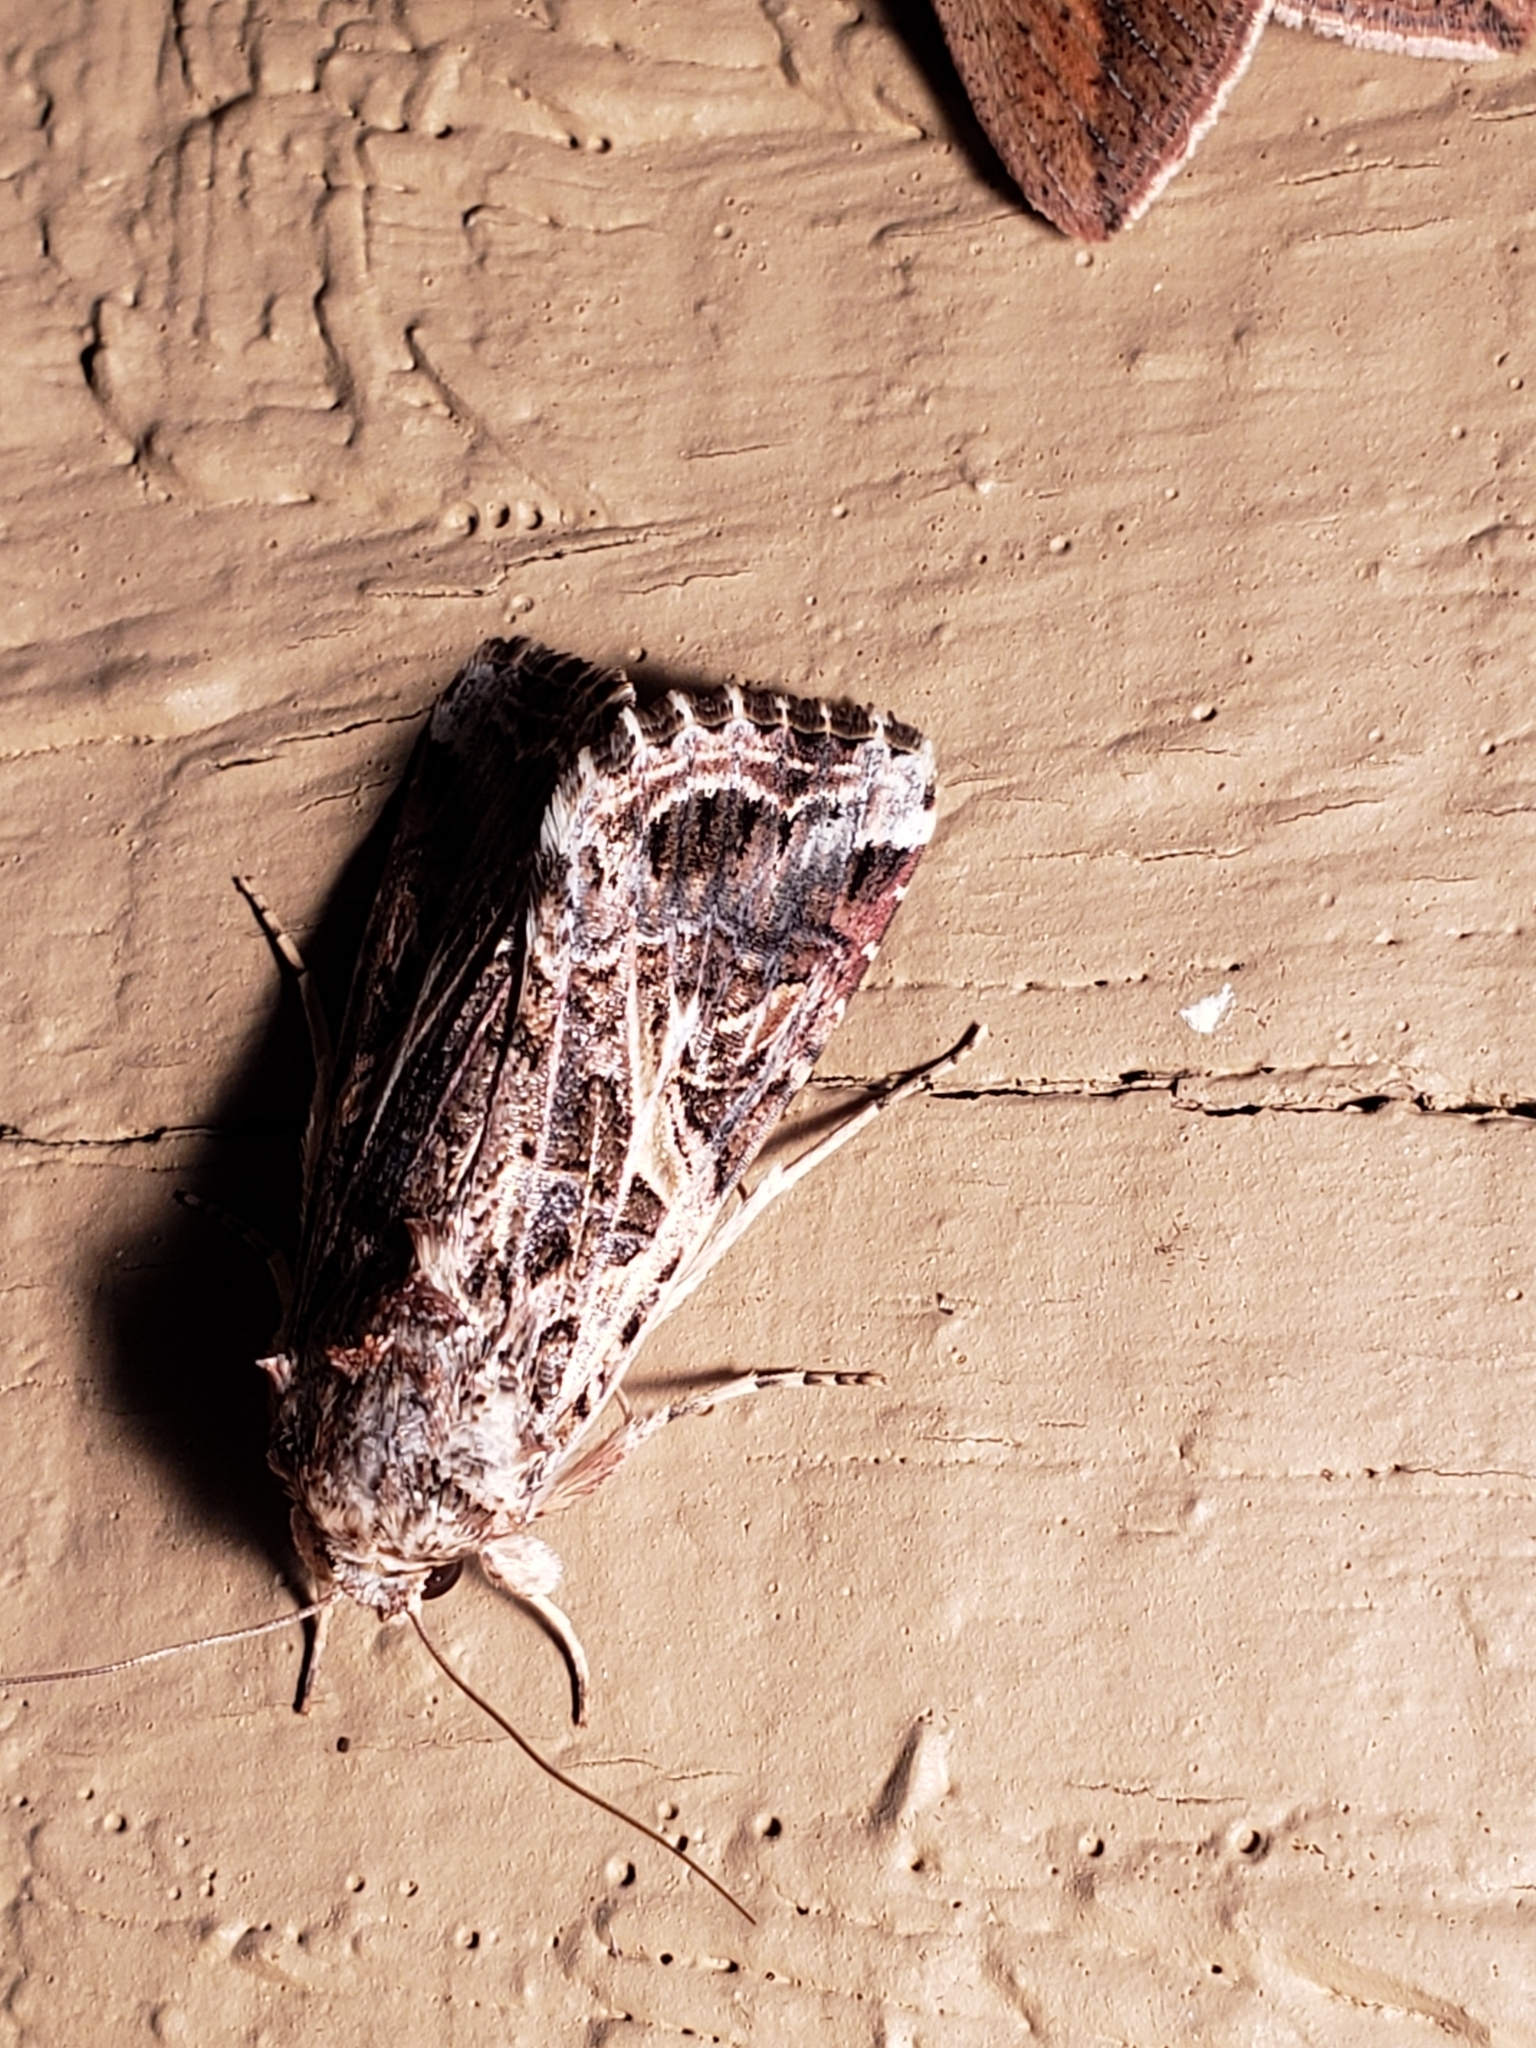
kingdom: Animalia
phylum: Arthropoda
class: Insecta
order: Lepidoptera
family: Noctuidae
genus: Spodoptera
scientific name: Spodoptera ornithogalli
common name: Yellow-striped armyworm
